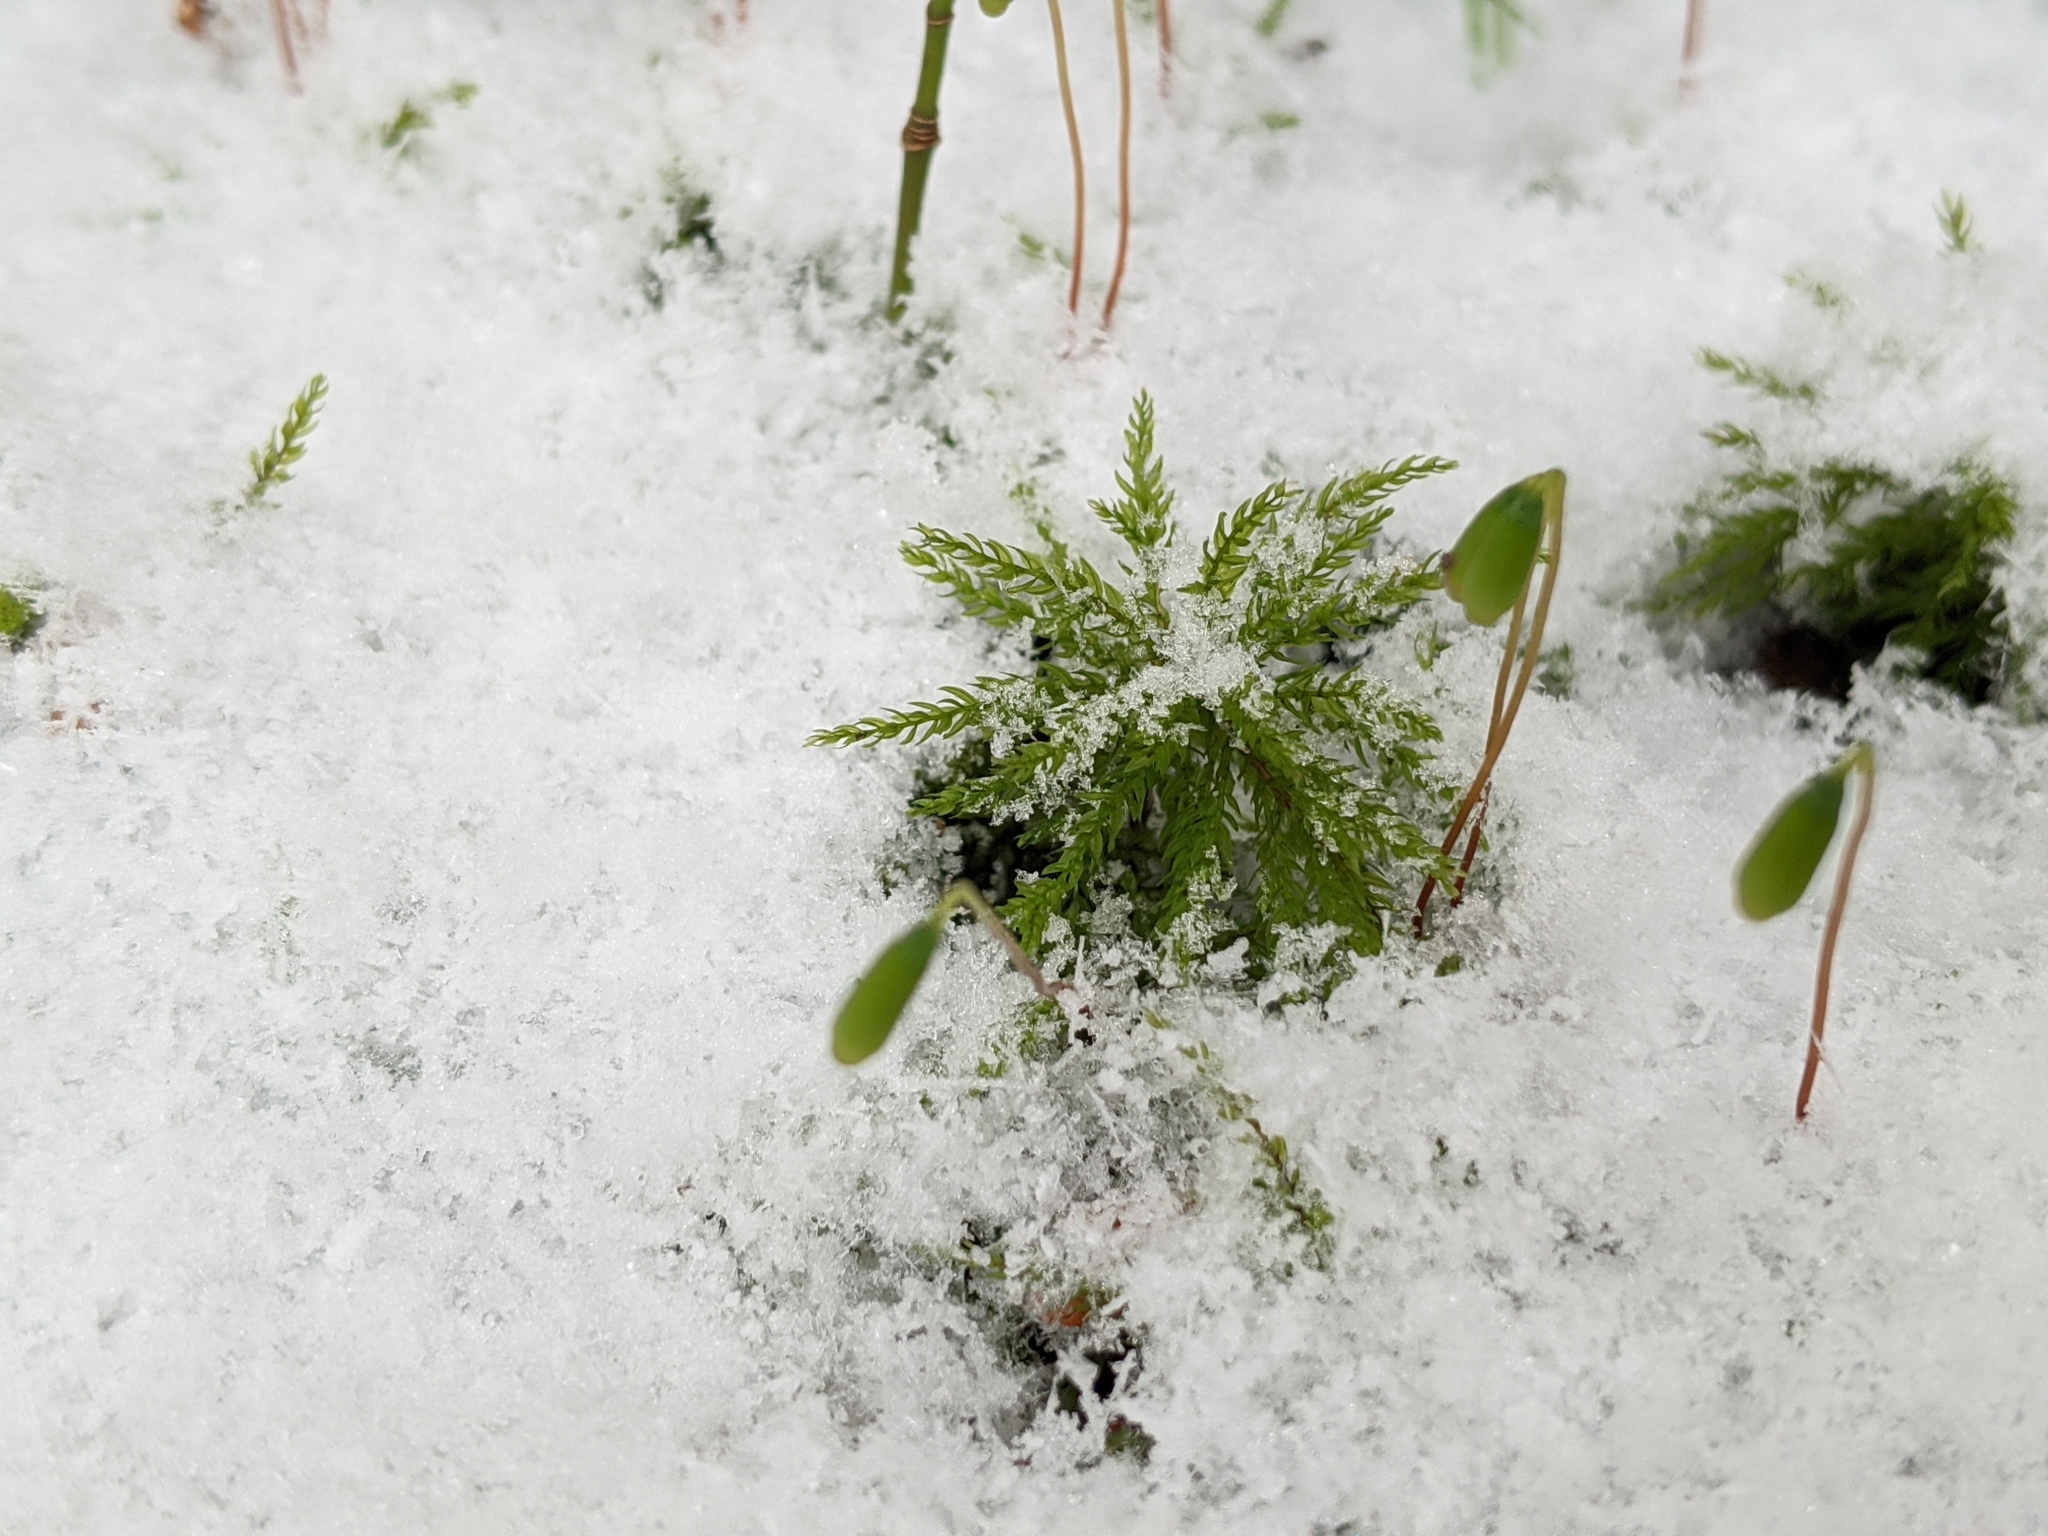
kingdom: Plantae
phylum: Bryophyta
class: Bryopsida
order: Bryales
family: Mniaceae
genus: Leucolepis
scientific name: Leucolepis acanthoneura
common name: Leucolepis umbrella moss
